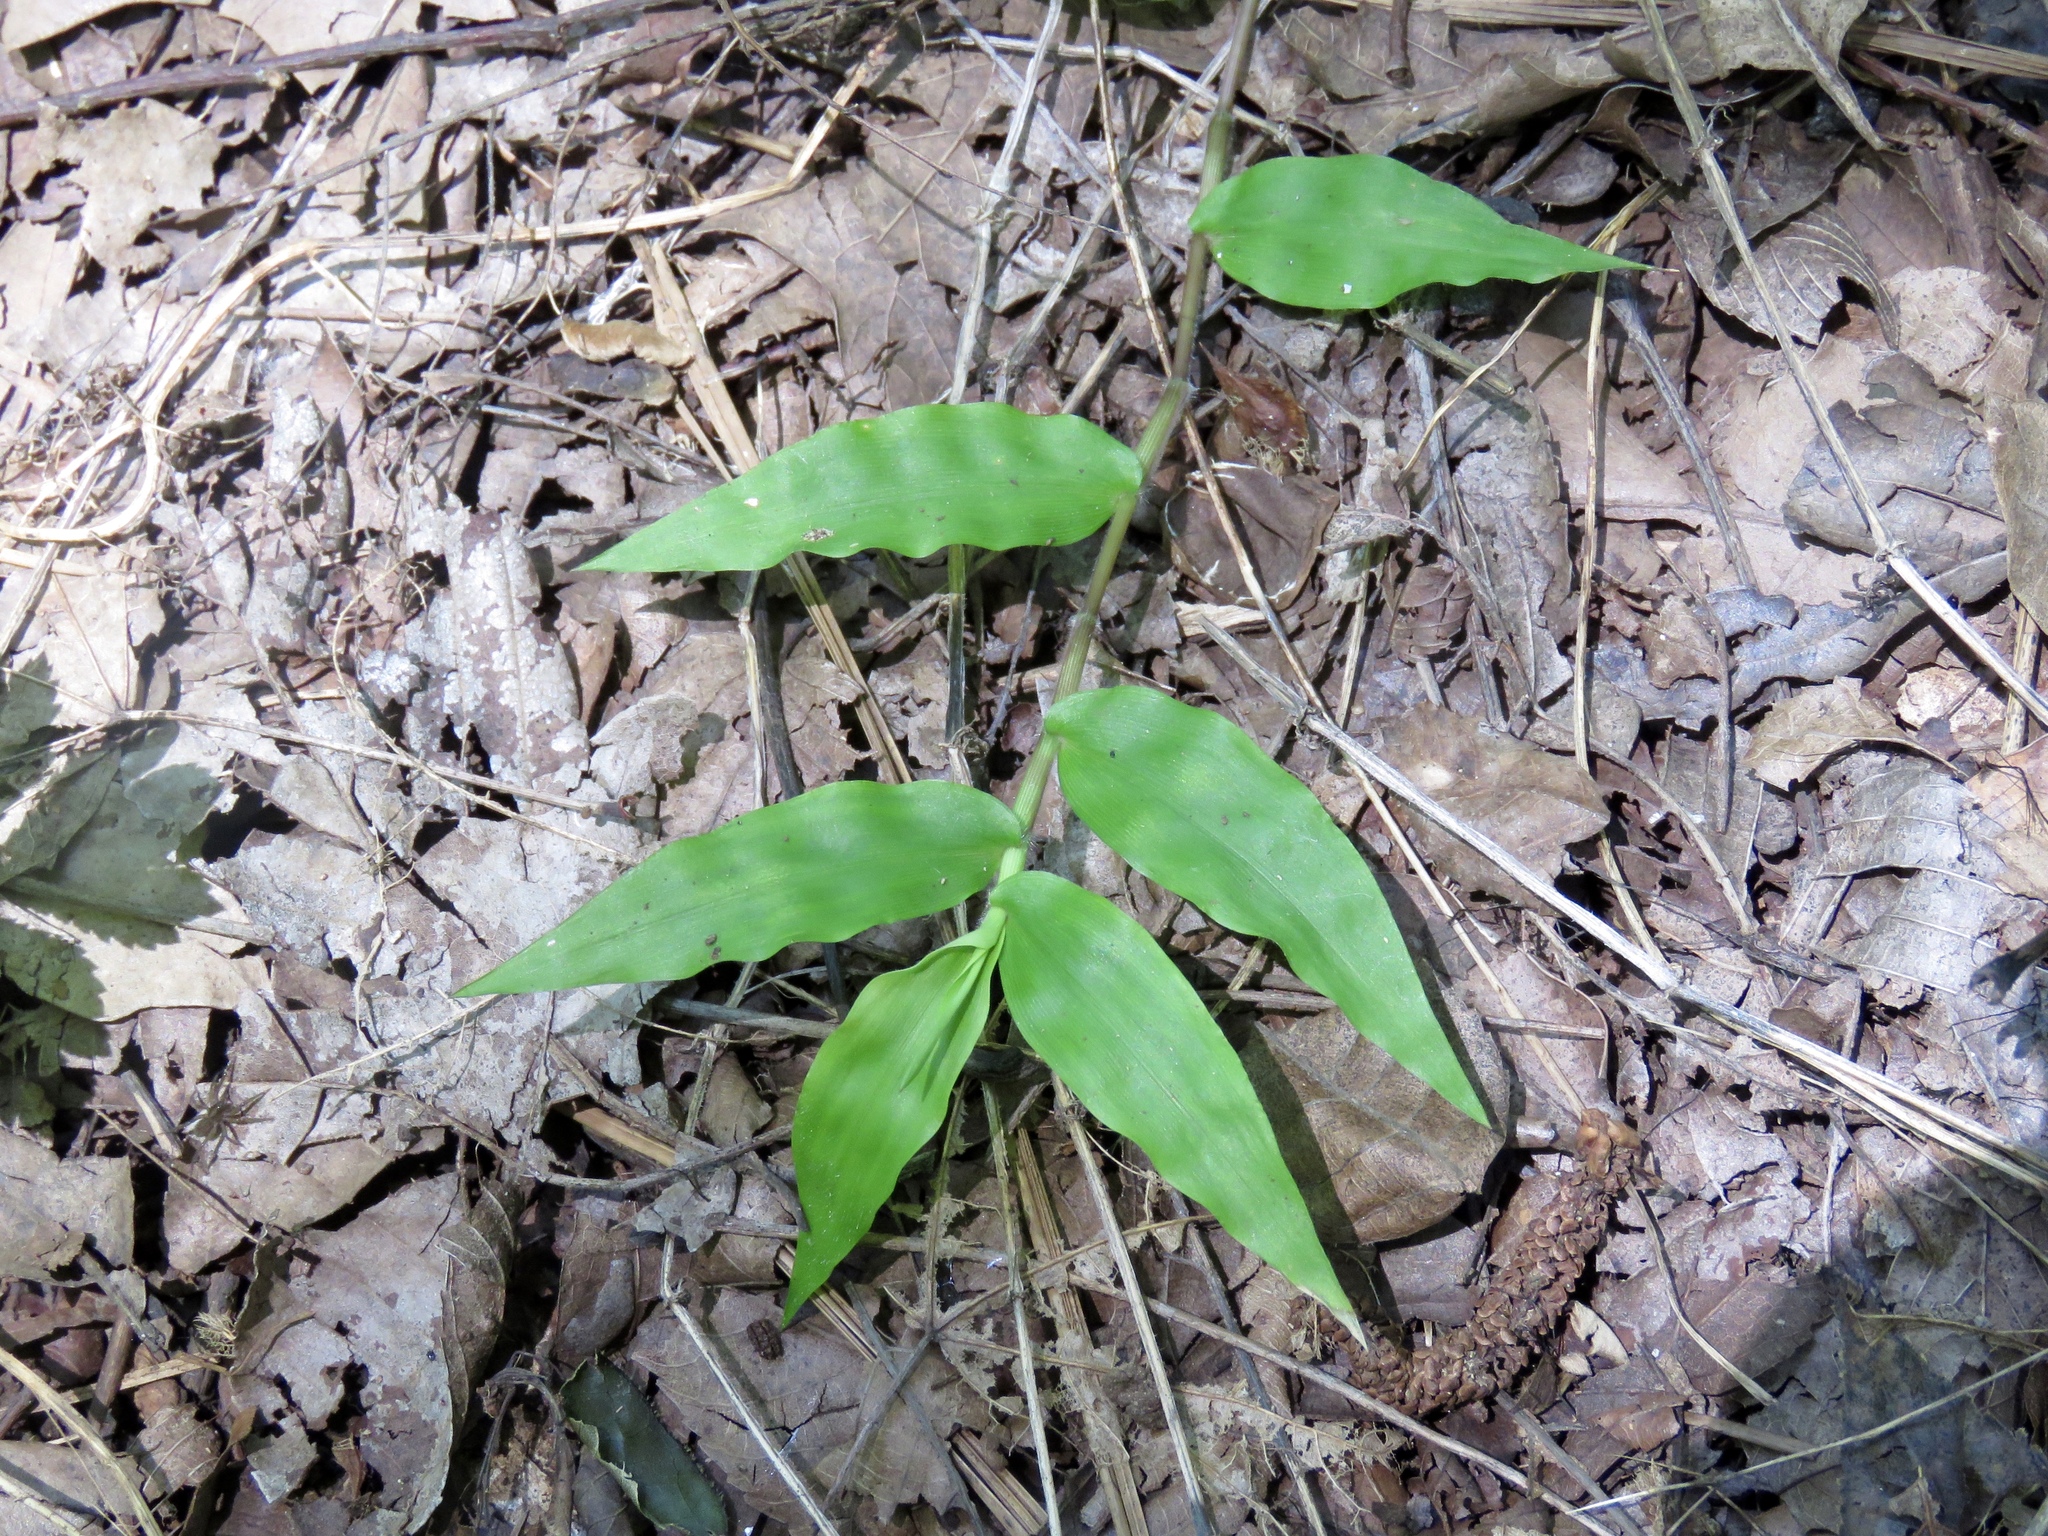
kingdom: Plantae
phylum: Tracheophyta
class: Liliopsida
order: Poales
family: Poaceae
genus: Oplismenus
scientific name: Oplismenus compositus
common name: Running mountain grass
